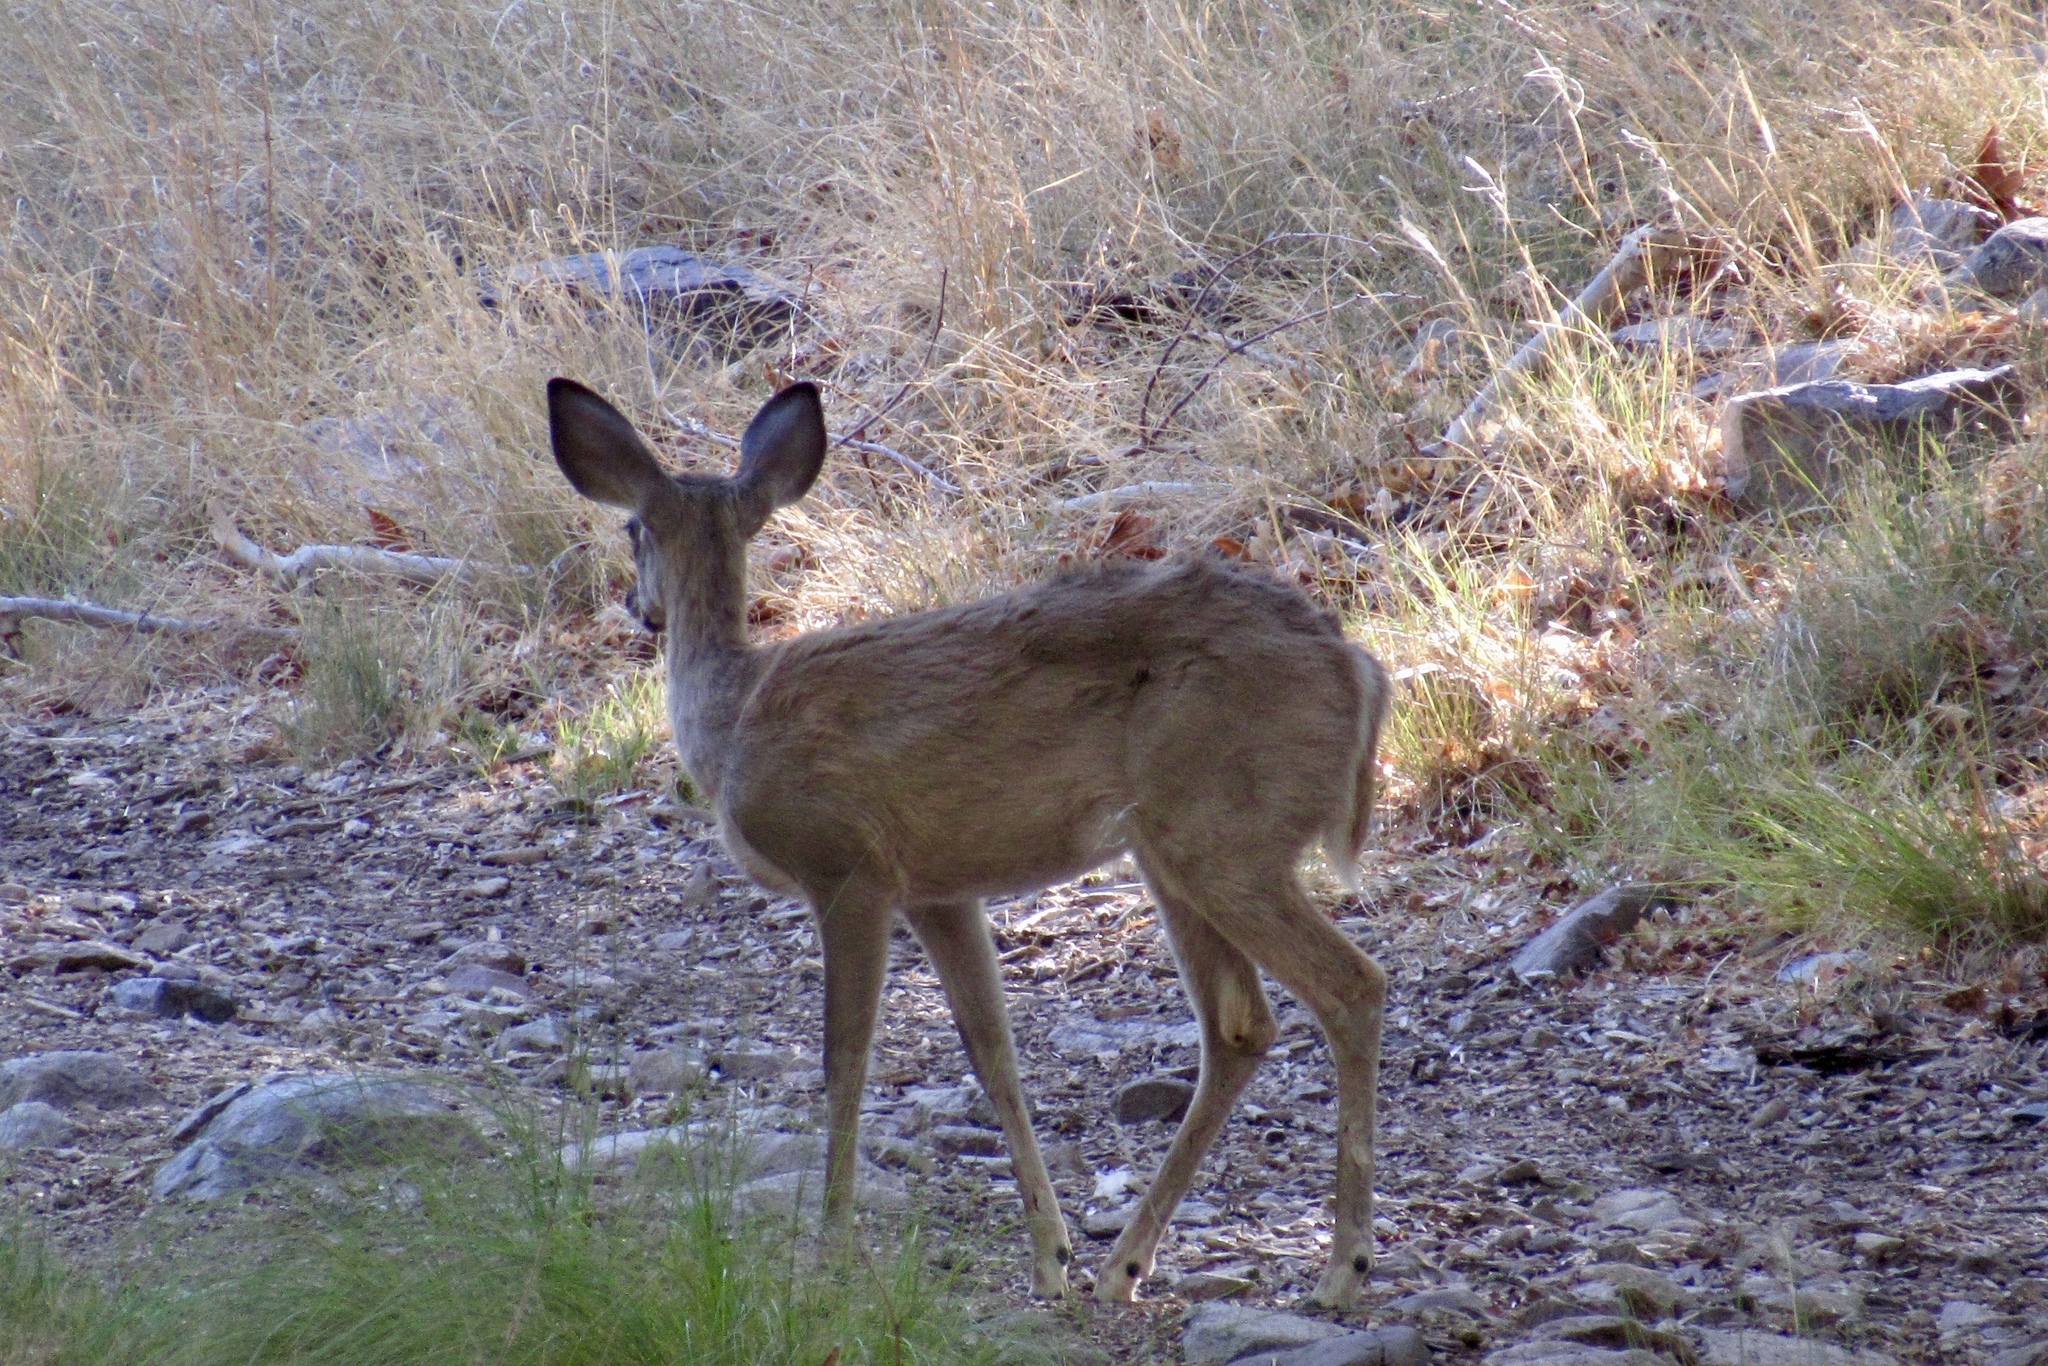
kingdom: Animalia
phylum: Chordata
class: Mammalia
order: Artiodactyla
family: Cervidae
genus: Odocoileus
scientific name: Odocoileus virginianus
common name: White-tailed deer
